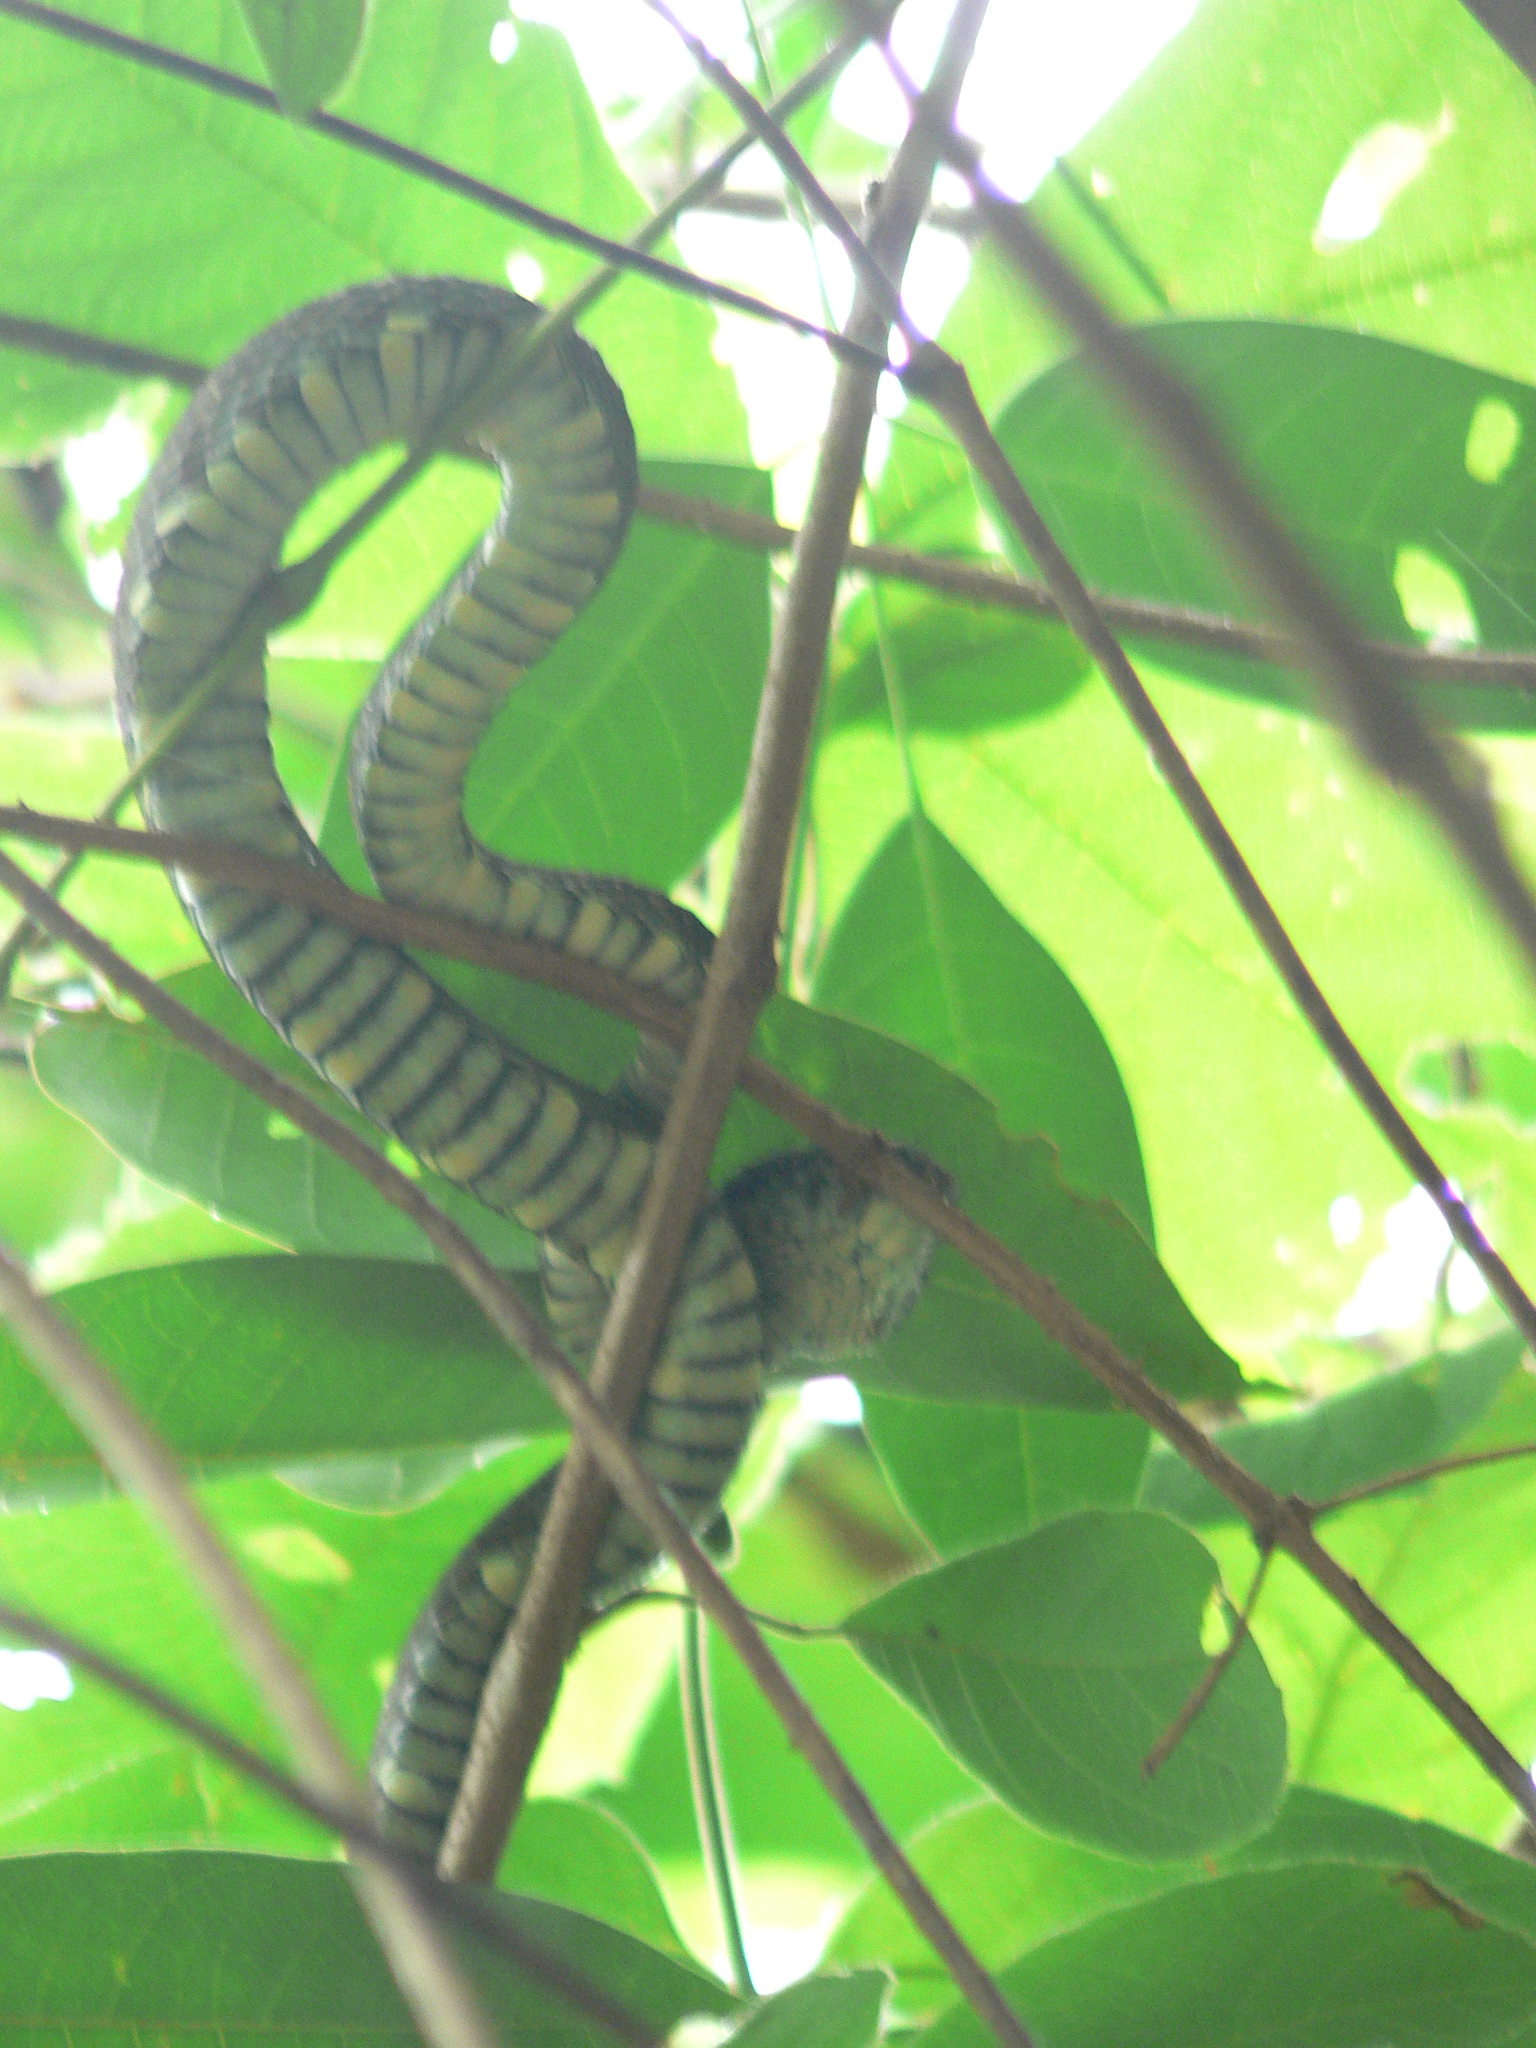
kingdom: Animalia
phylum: Chordata
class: Squamata
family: Viperidae
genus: Craspedocephalus
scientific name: Craspedocephalus anamallensis
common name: Malabarian pit viper
